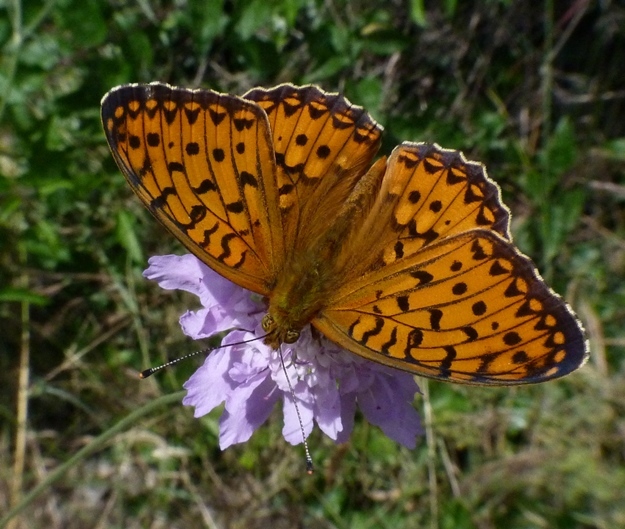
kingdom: Animalia
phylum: Arthropoda
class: Insecta
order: Lepidoptera
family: Nymphalidae
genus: Speyeria
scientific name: Speyeria aglaja
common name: Dark green fritillary
